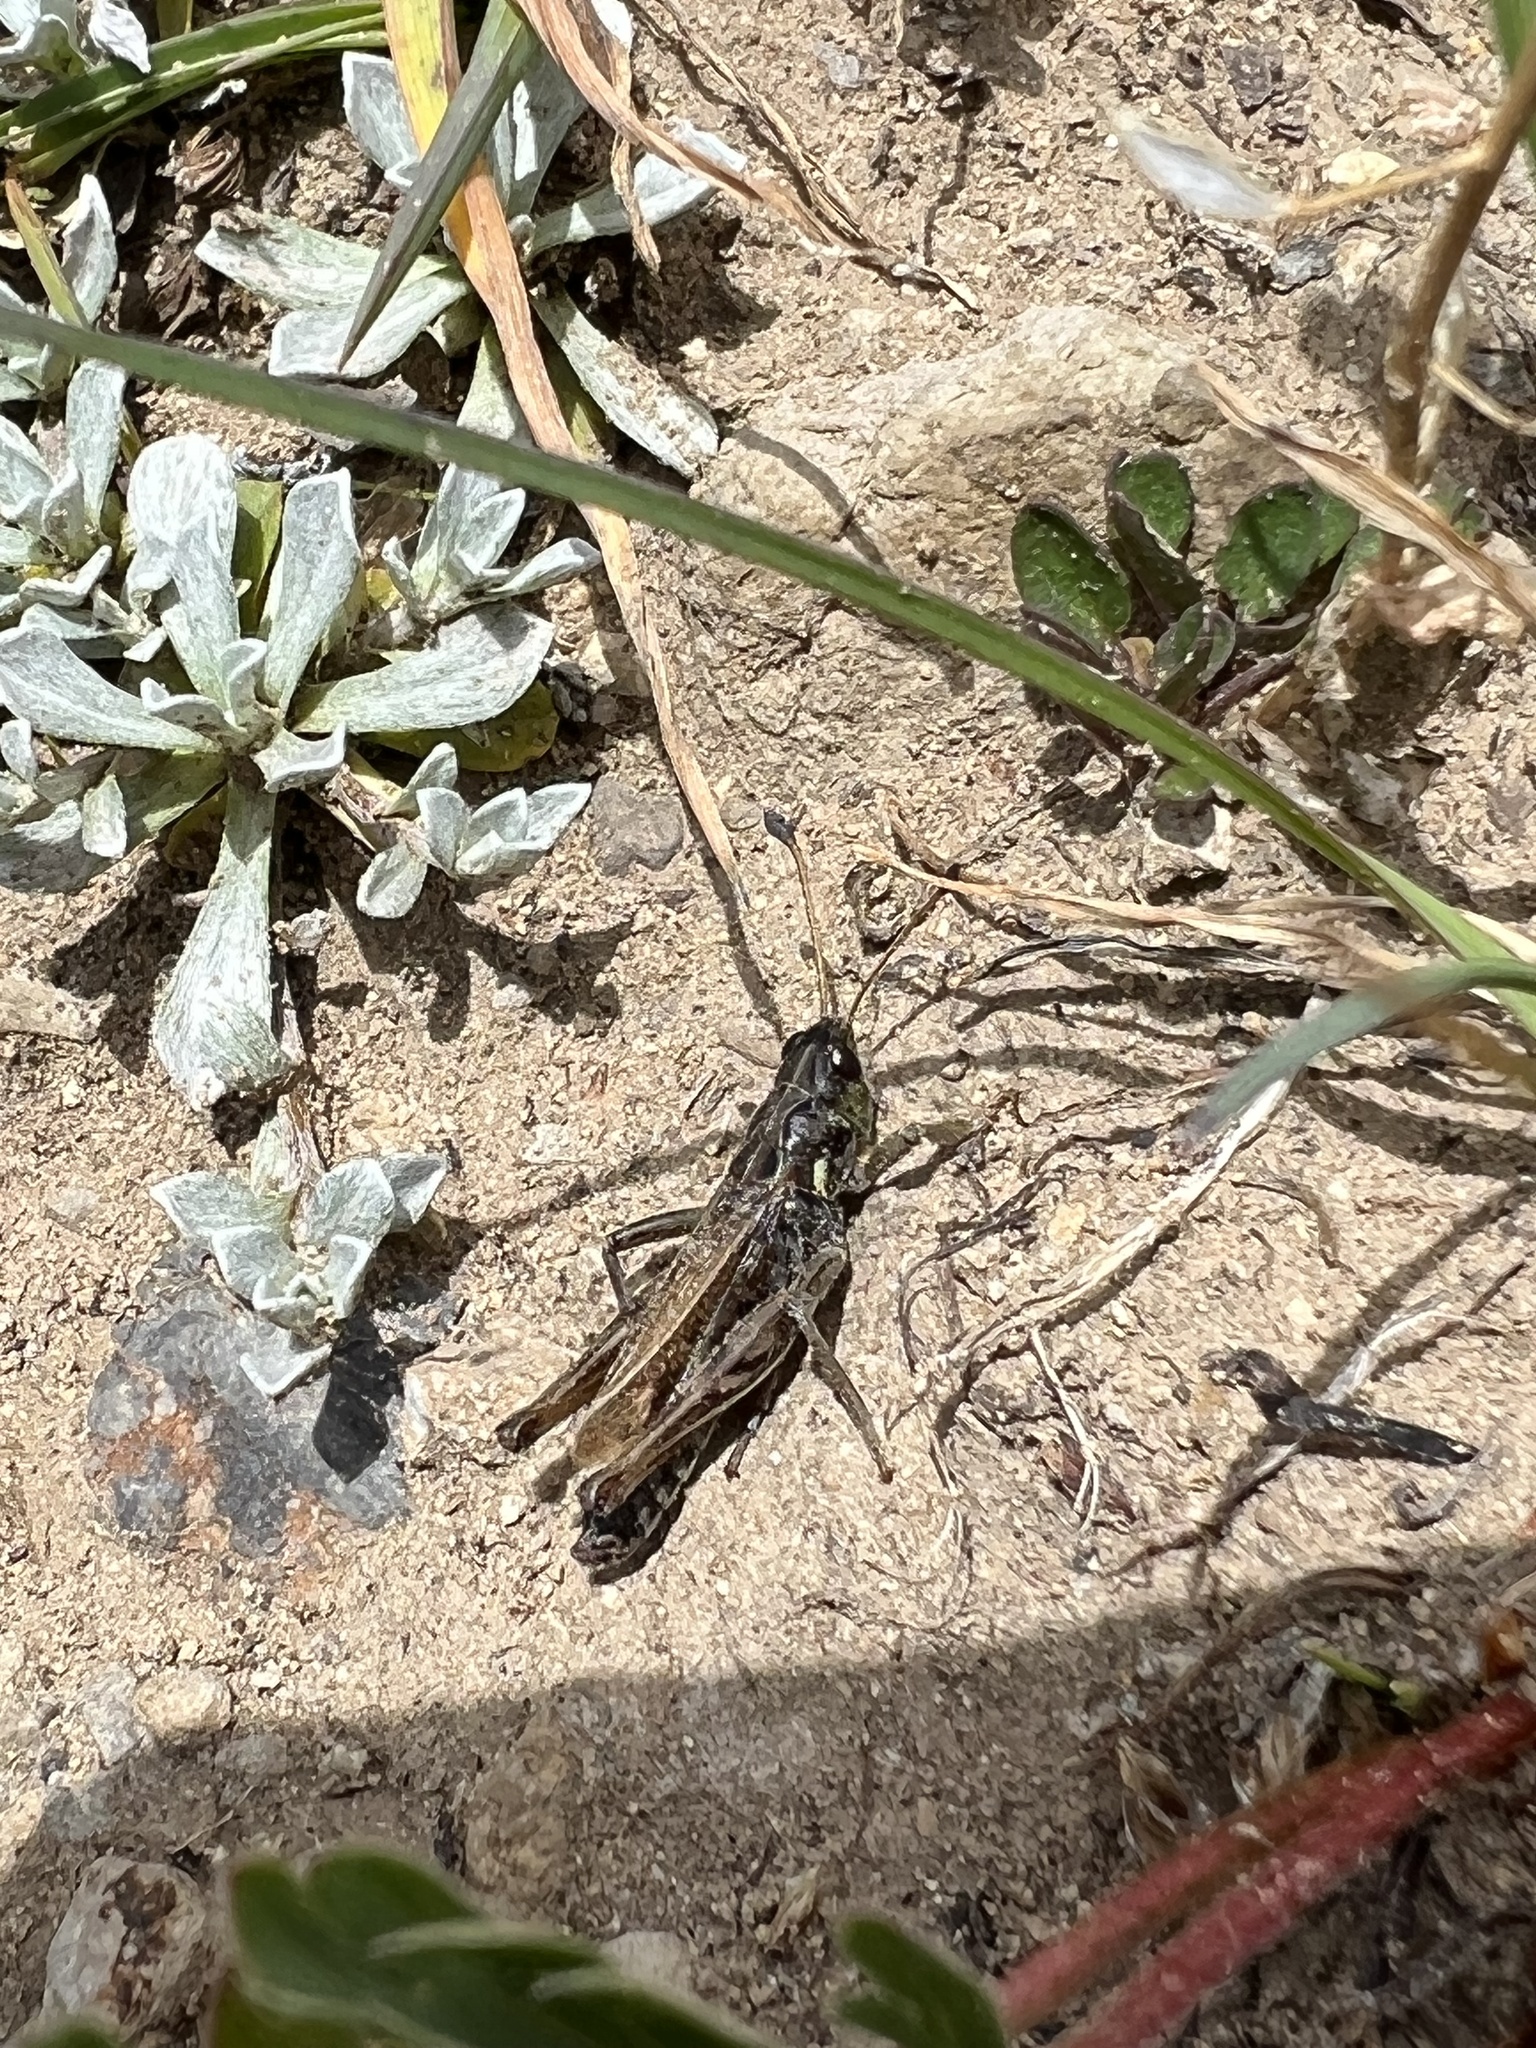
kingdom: Animalia
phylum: Arthropoda
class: Insecta
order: Orthoptera
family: Acrididae
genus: Aeropedellus
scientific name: Aeropedellus clavatus
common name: Clubhorned grasshopper
